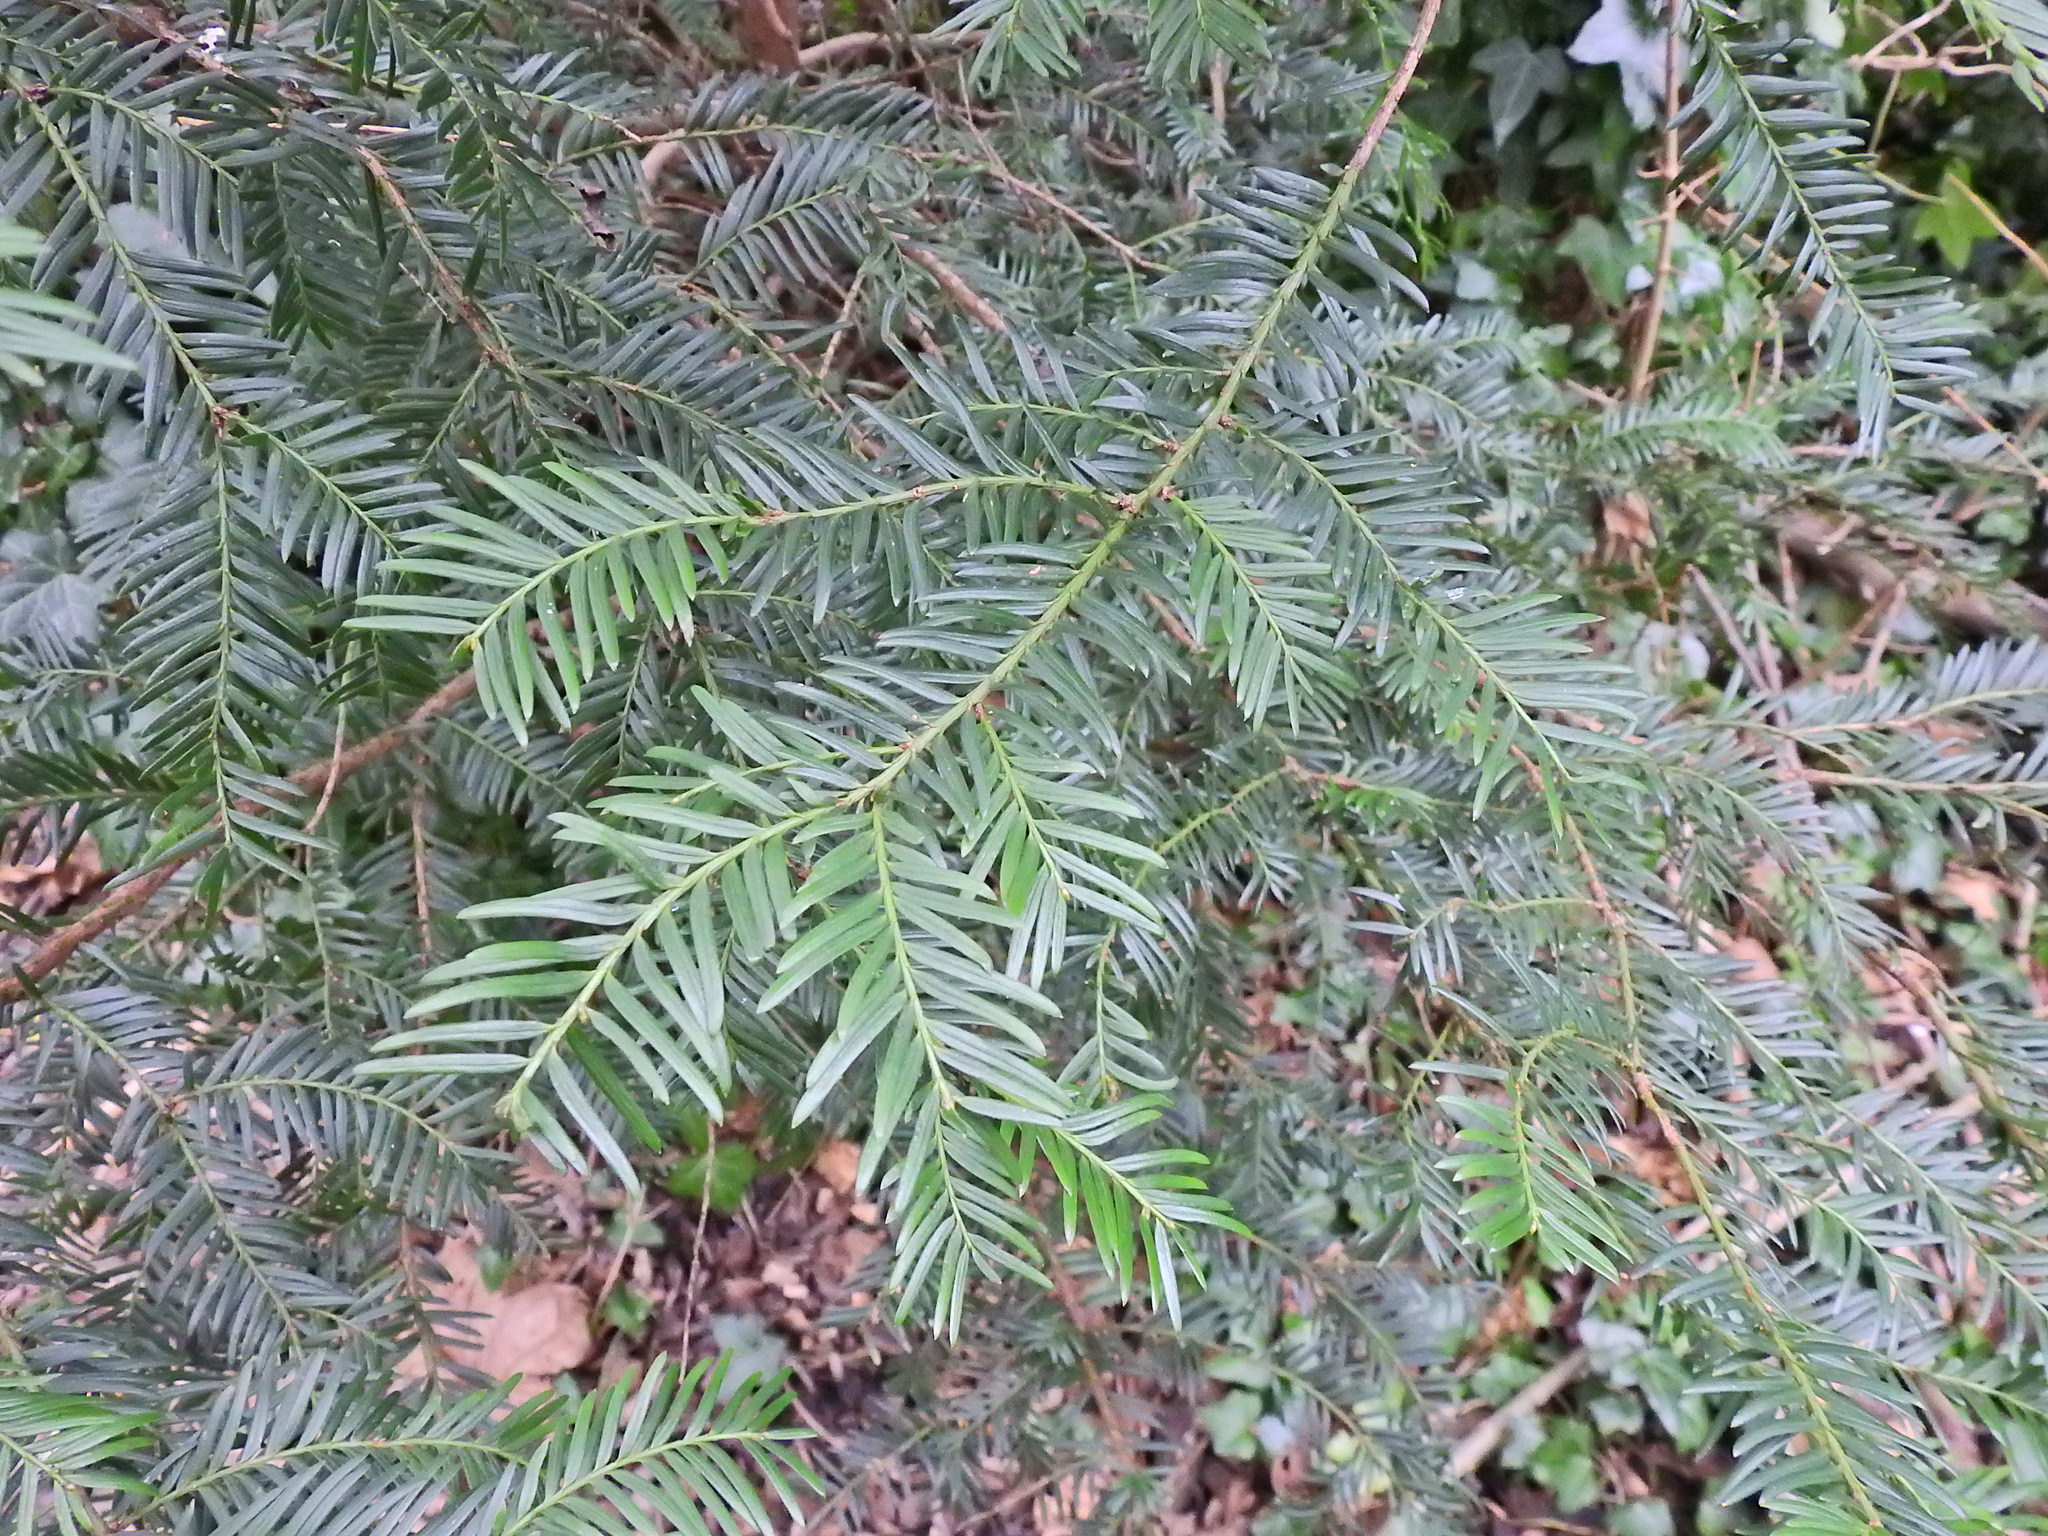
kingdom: Plantae
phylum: Tracheophyta
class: Pinopsida
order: Pinales
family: Taxaceae
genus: Taxus
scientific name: Taxus baccata
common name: Yew
